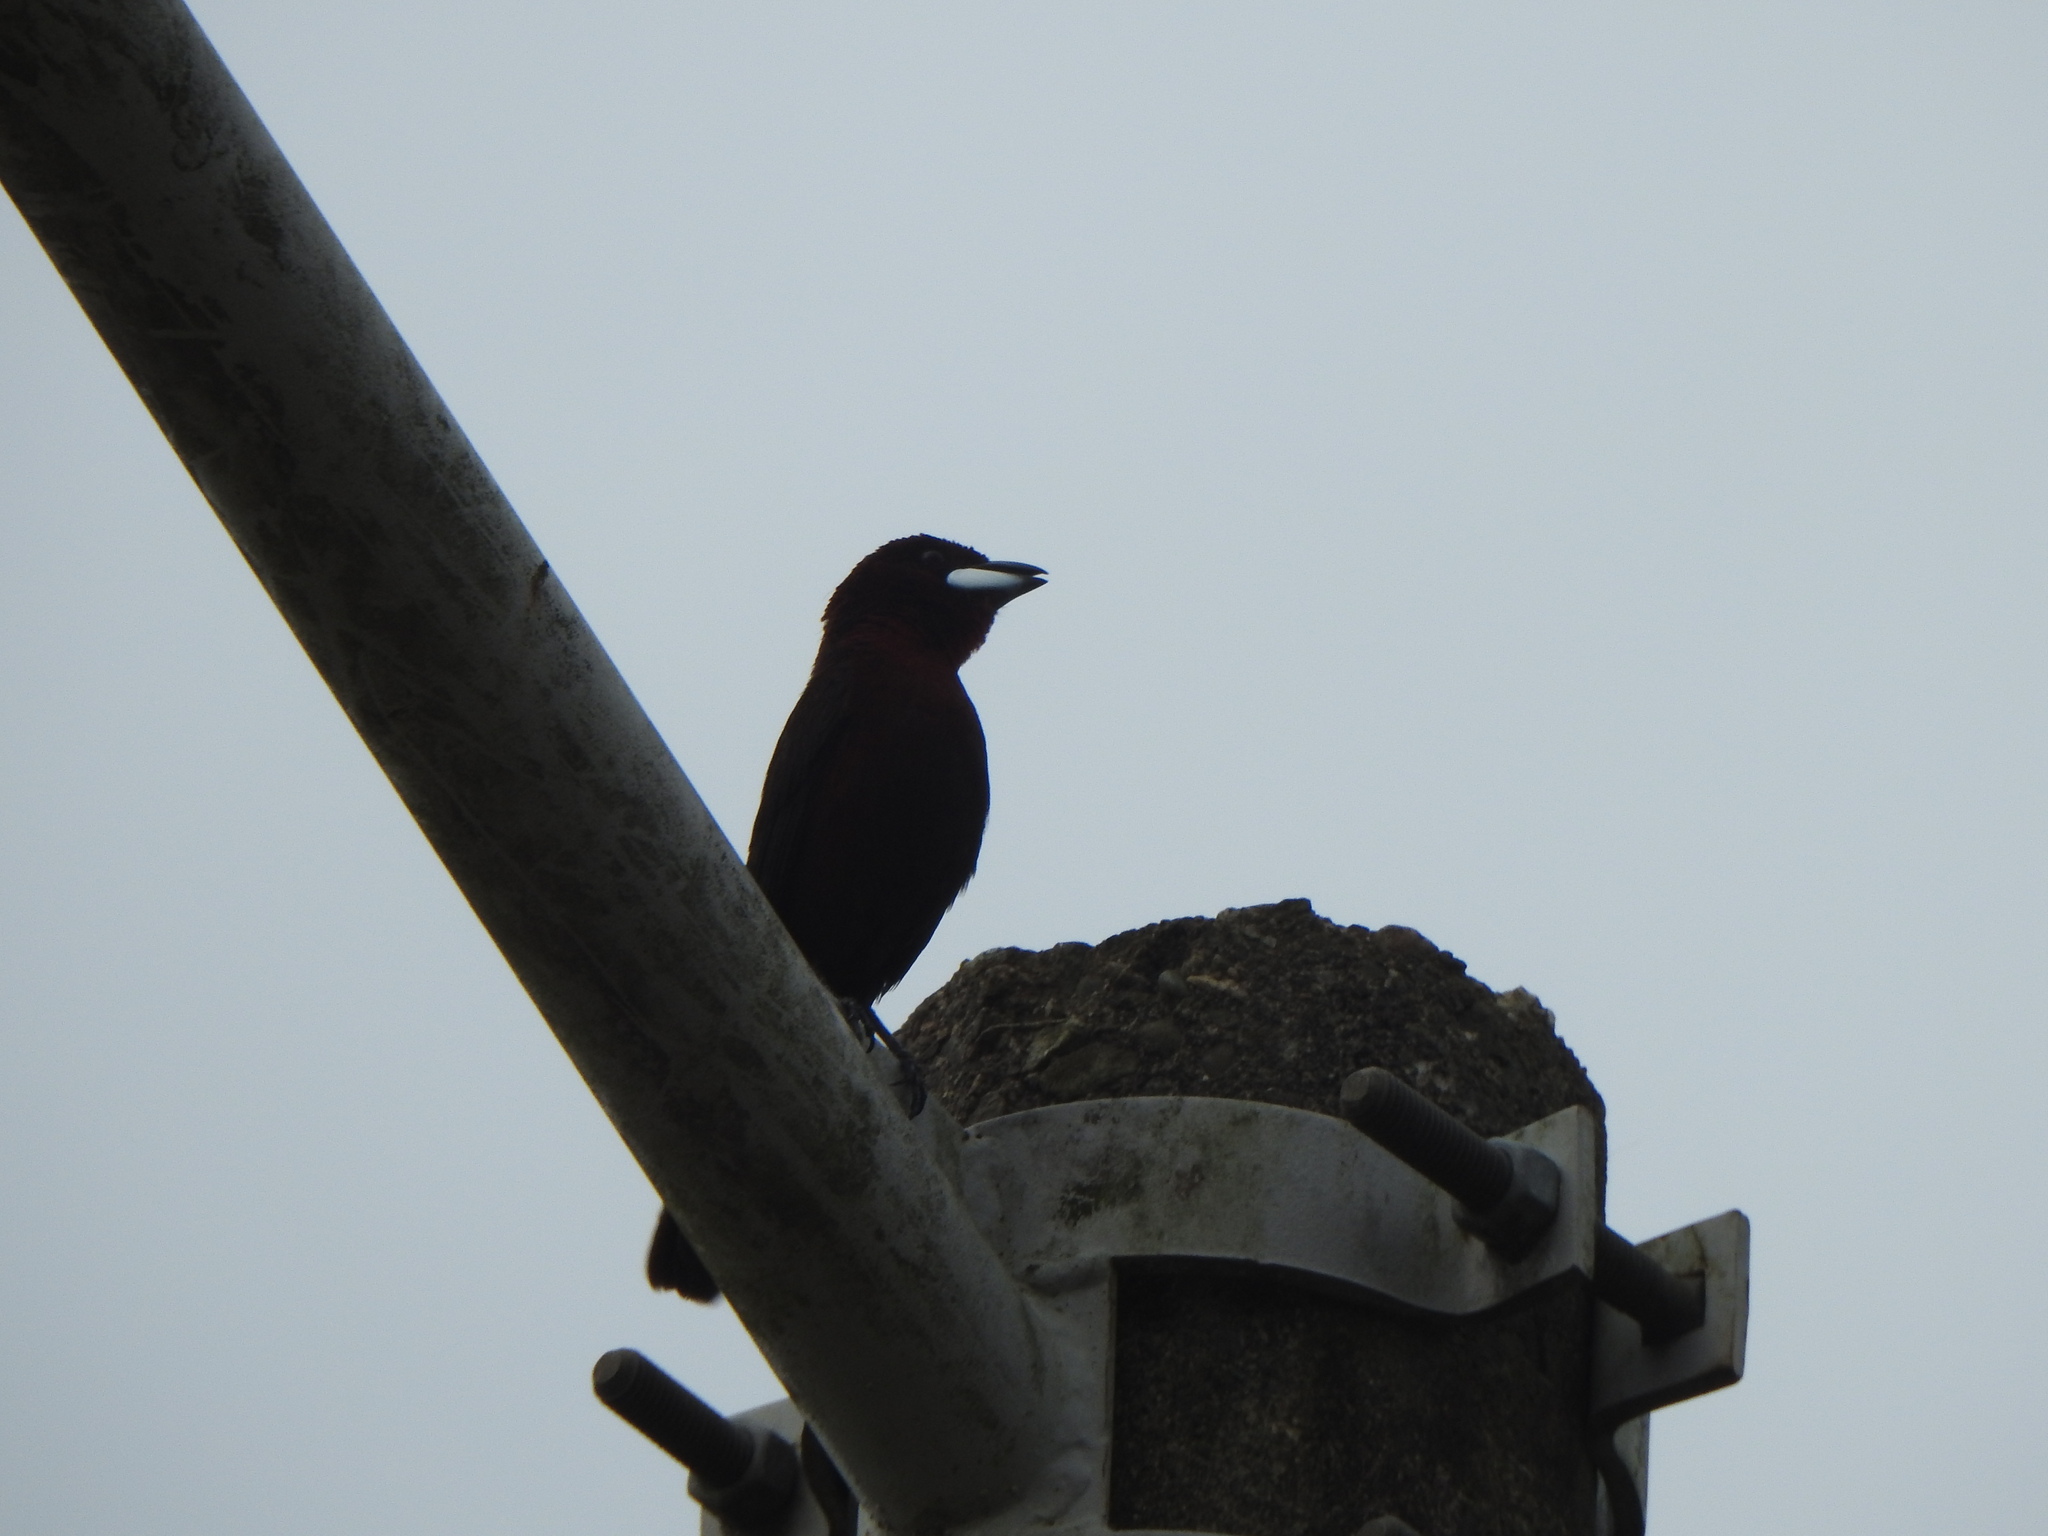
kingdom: Animalia
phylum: Chordata
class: Aves
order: Passeriformes
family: Thraupidae
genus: Ramphocelus
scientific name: Ramphocelus carbo
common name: Silver-beaked tanager
